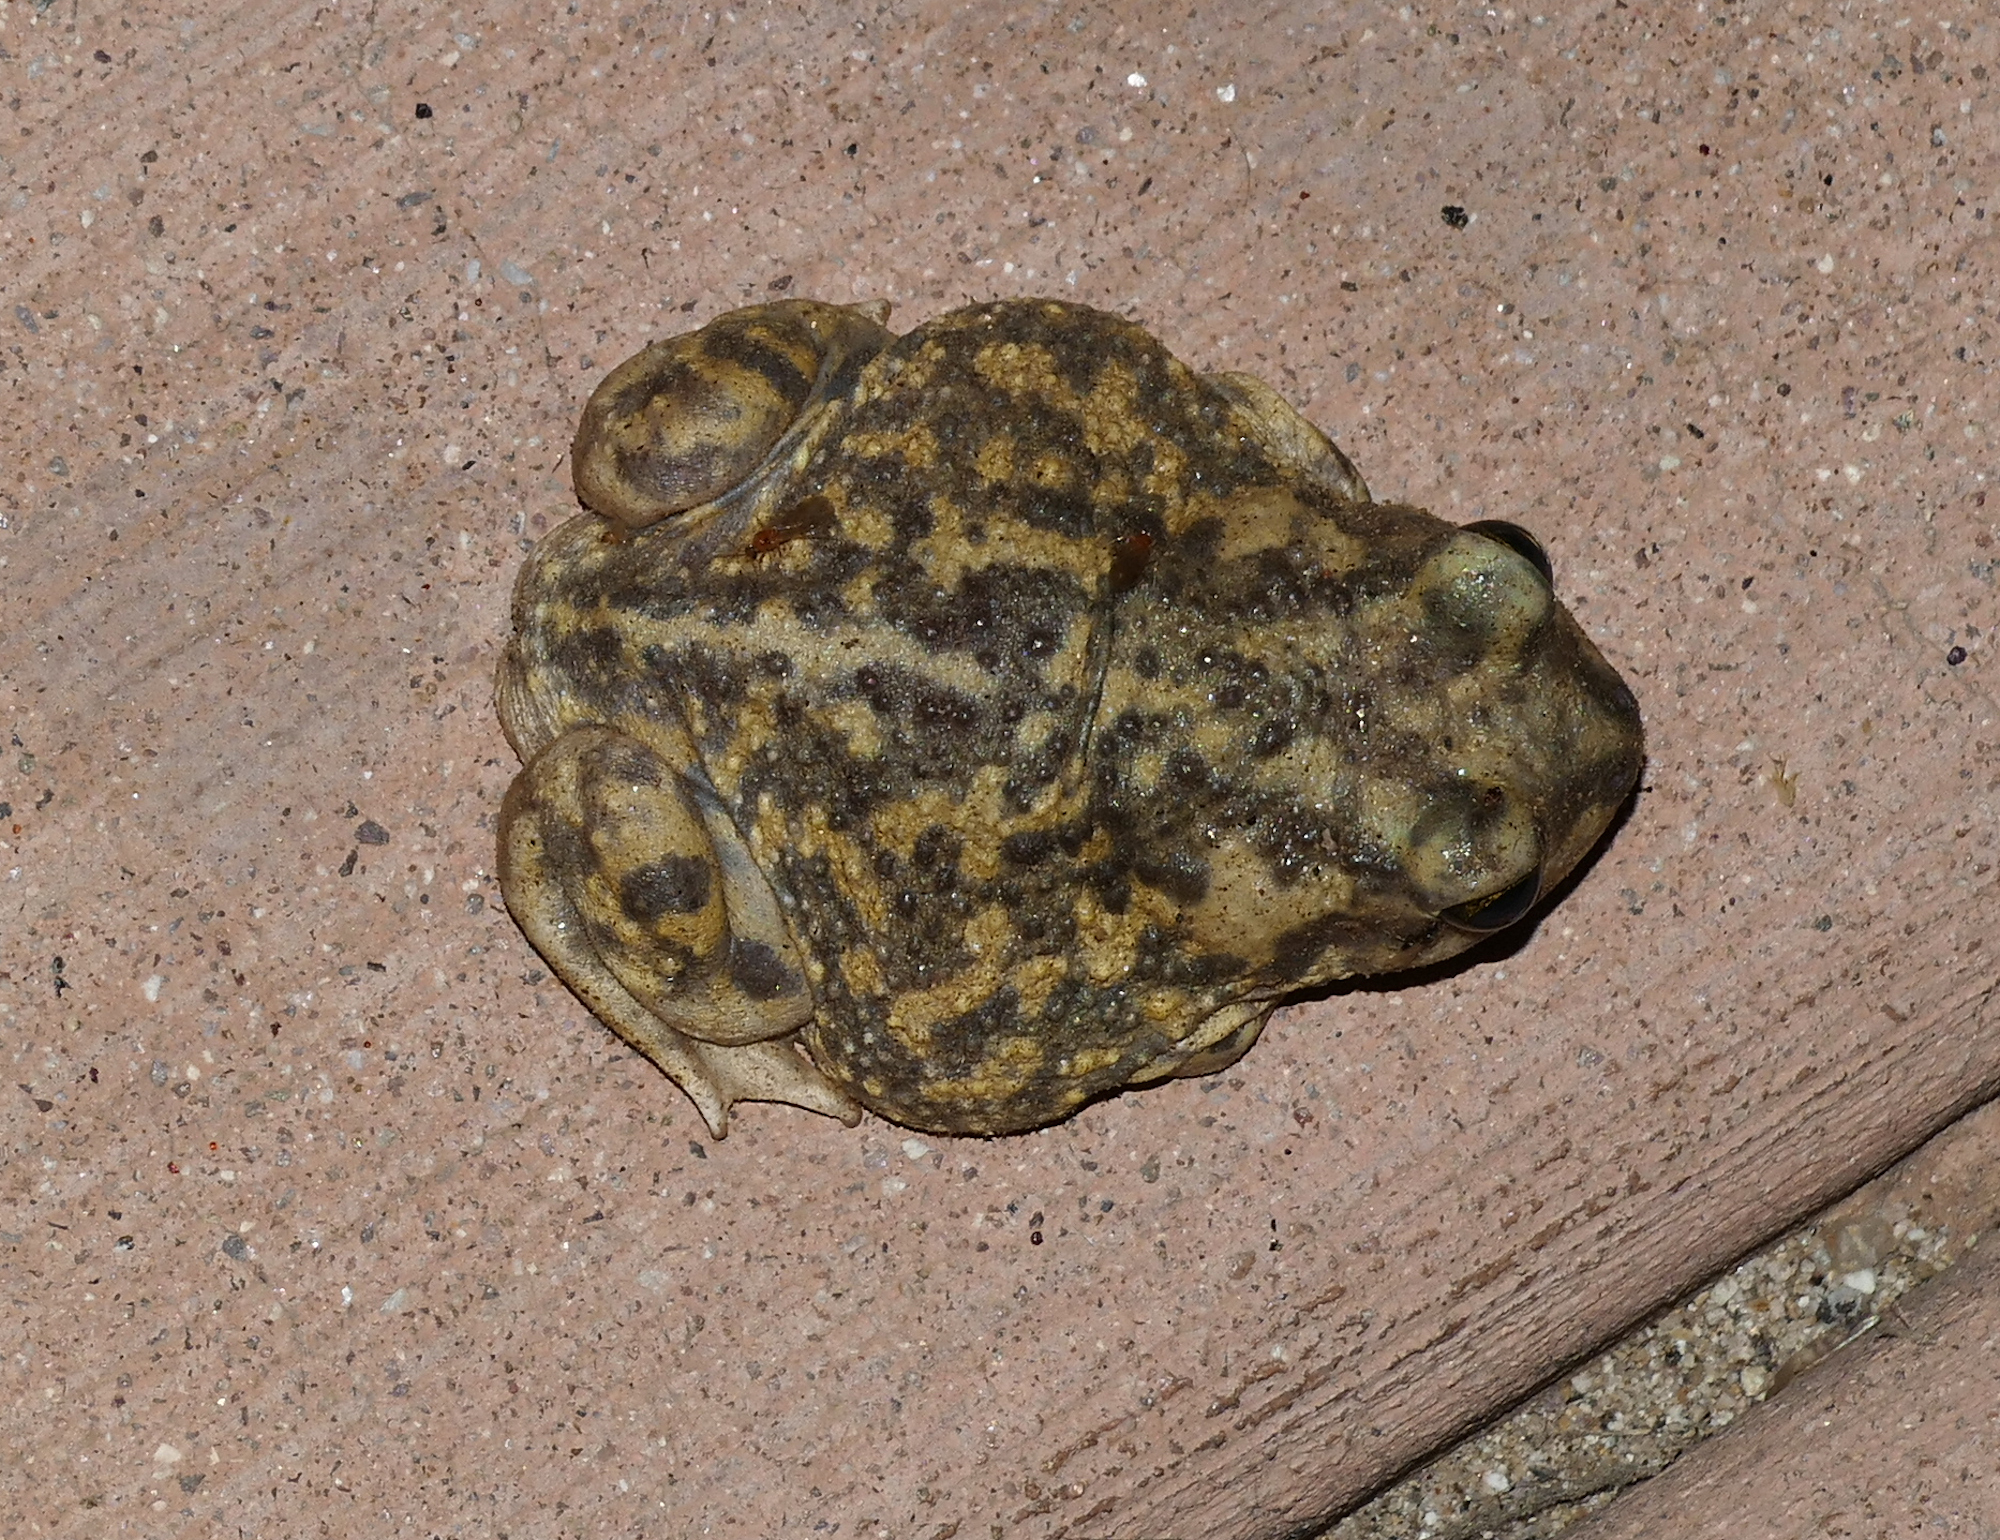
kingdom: Animalia
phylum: Chordata
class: Amphibia
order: Anura
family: Scaphiopodidae
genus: Scaphiopus
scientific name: Scaphiopus couchii
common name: Couch's spadefoot toad
